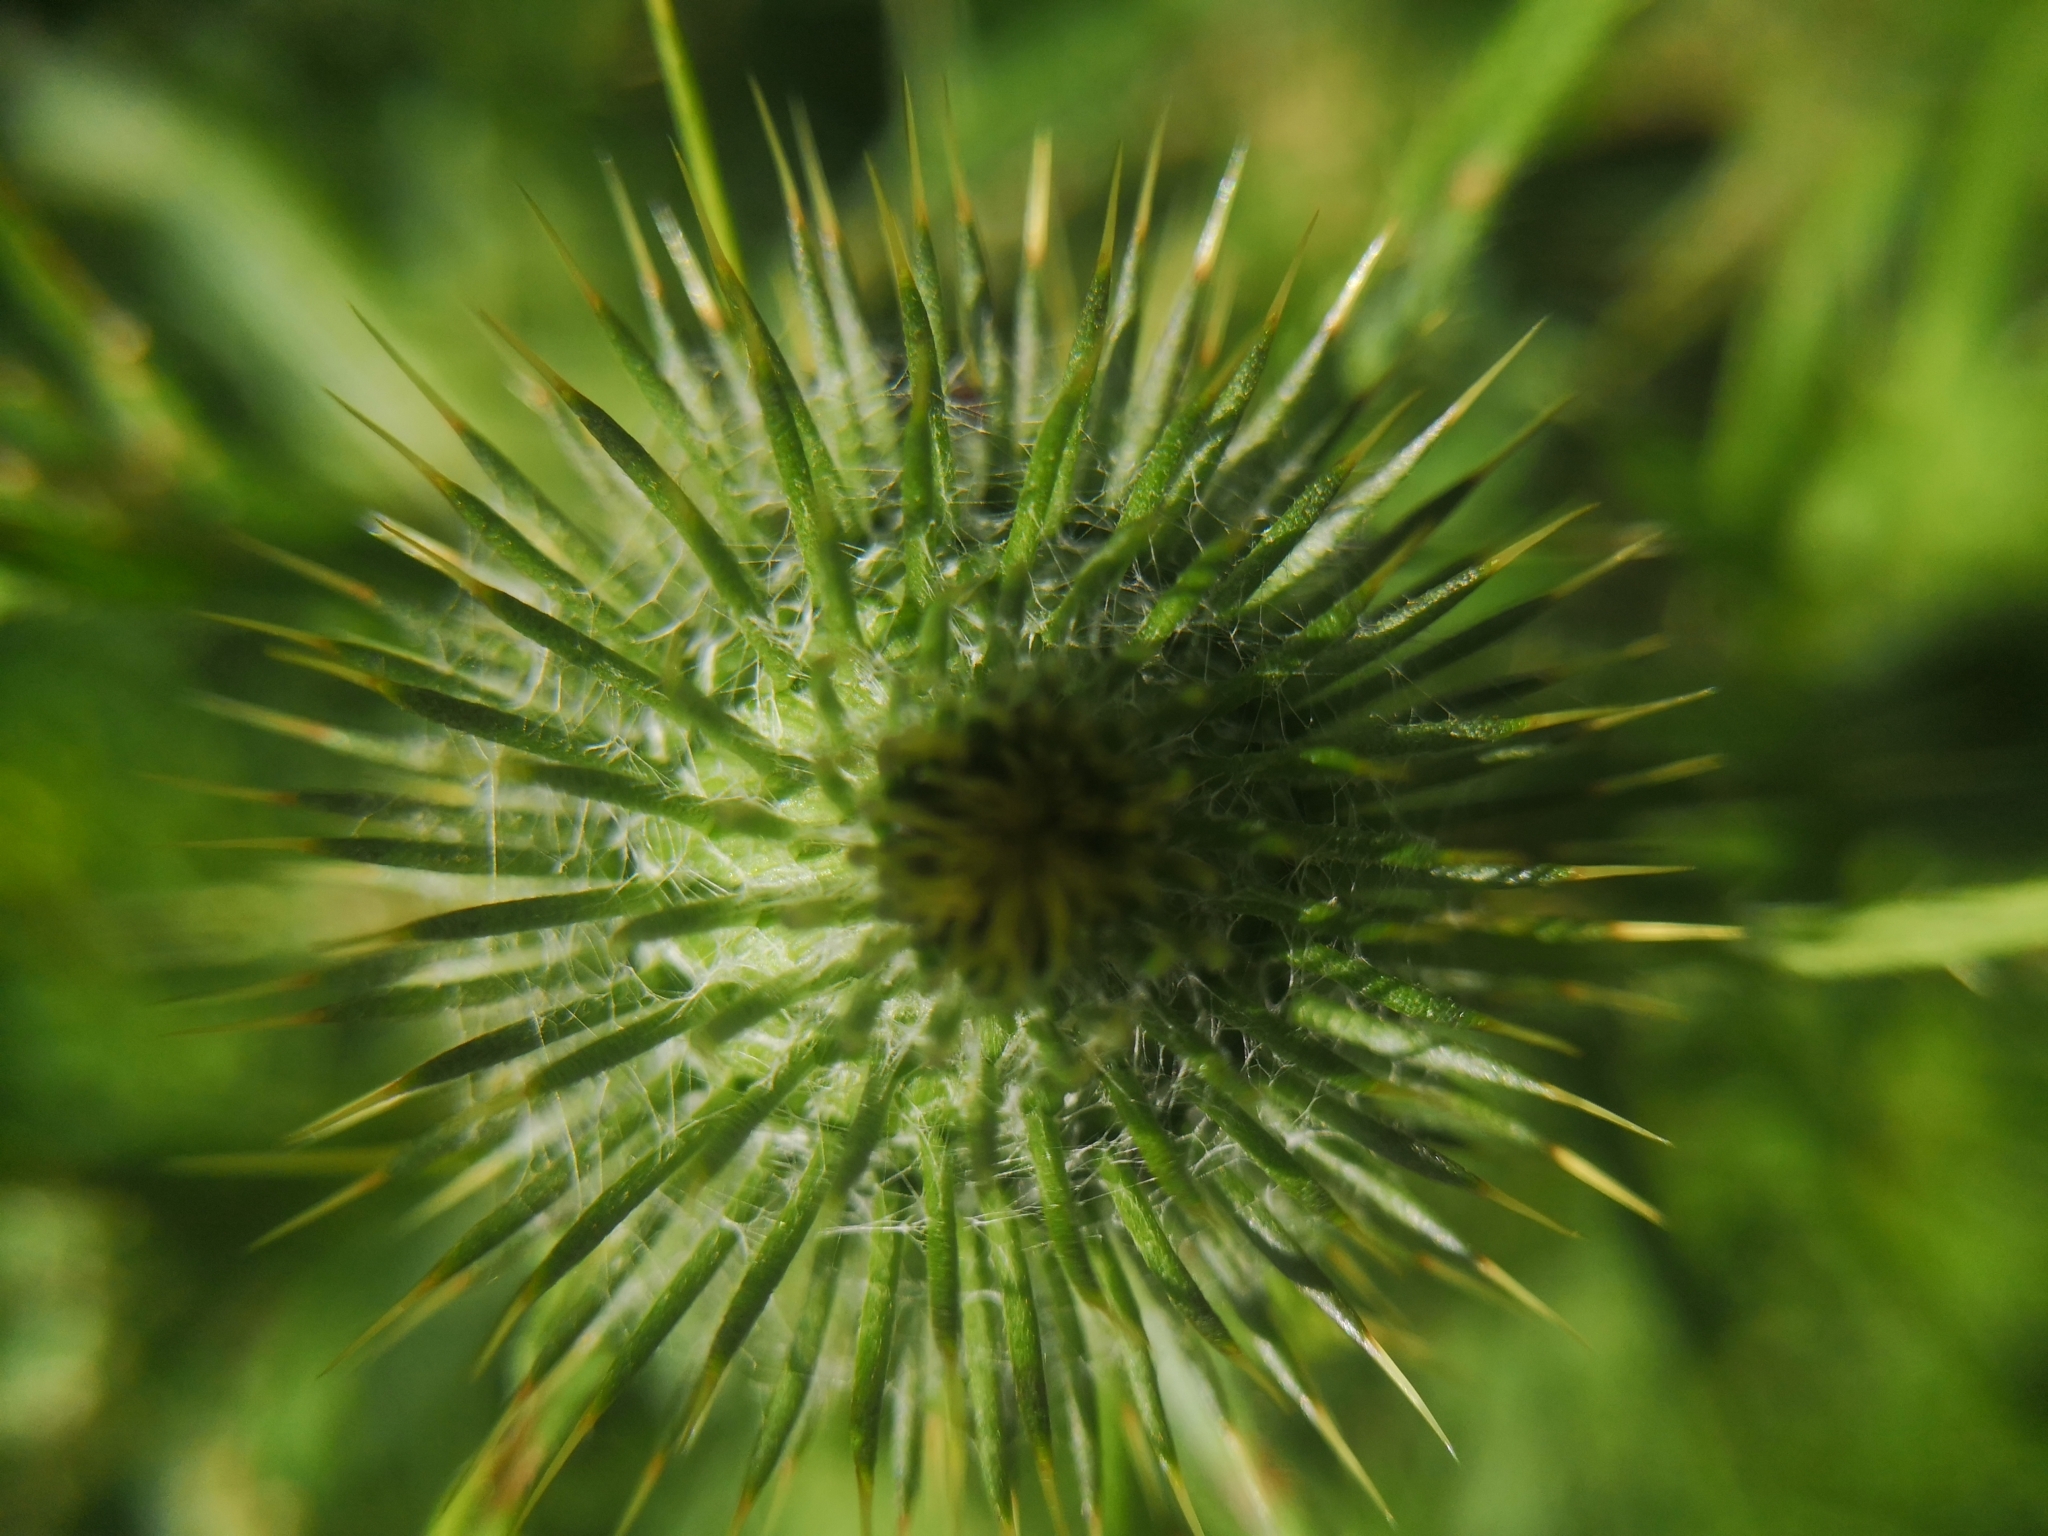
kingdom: Plantae
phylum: Tracheophyta
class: Magnoliopsida
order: Asterales
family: Asteraceae
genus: Cirsium
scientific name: Cirsium vulgare
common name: Bull thistle
